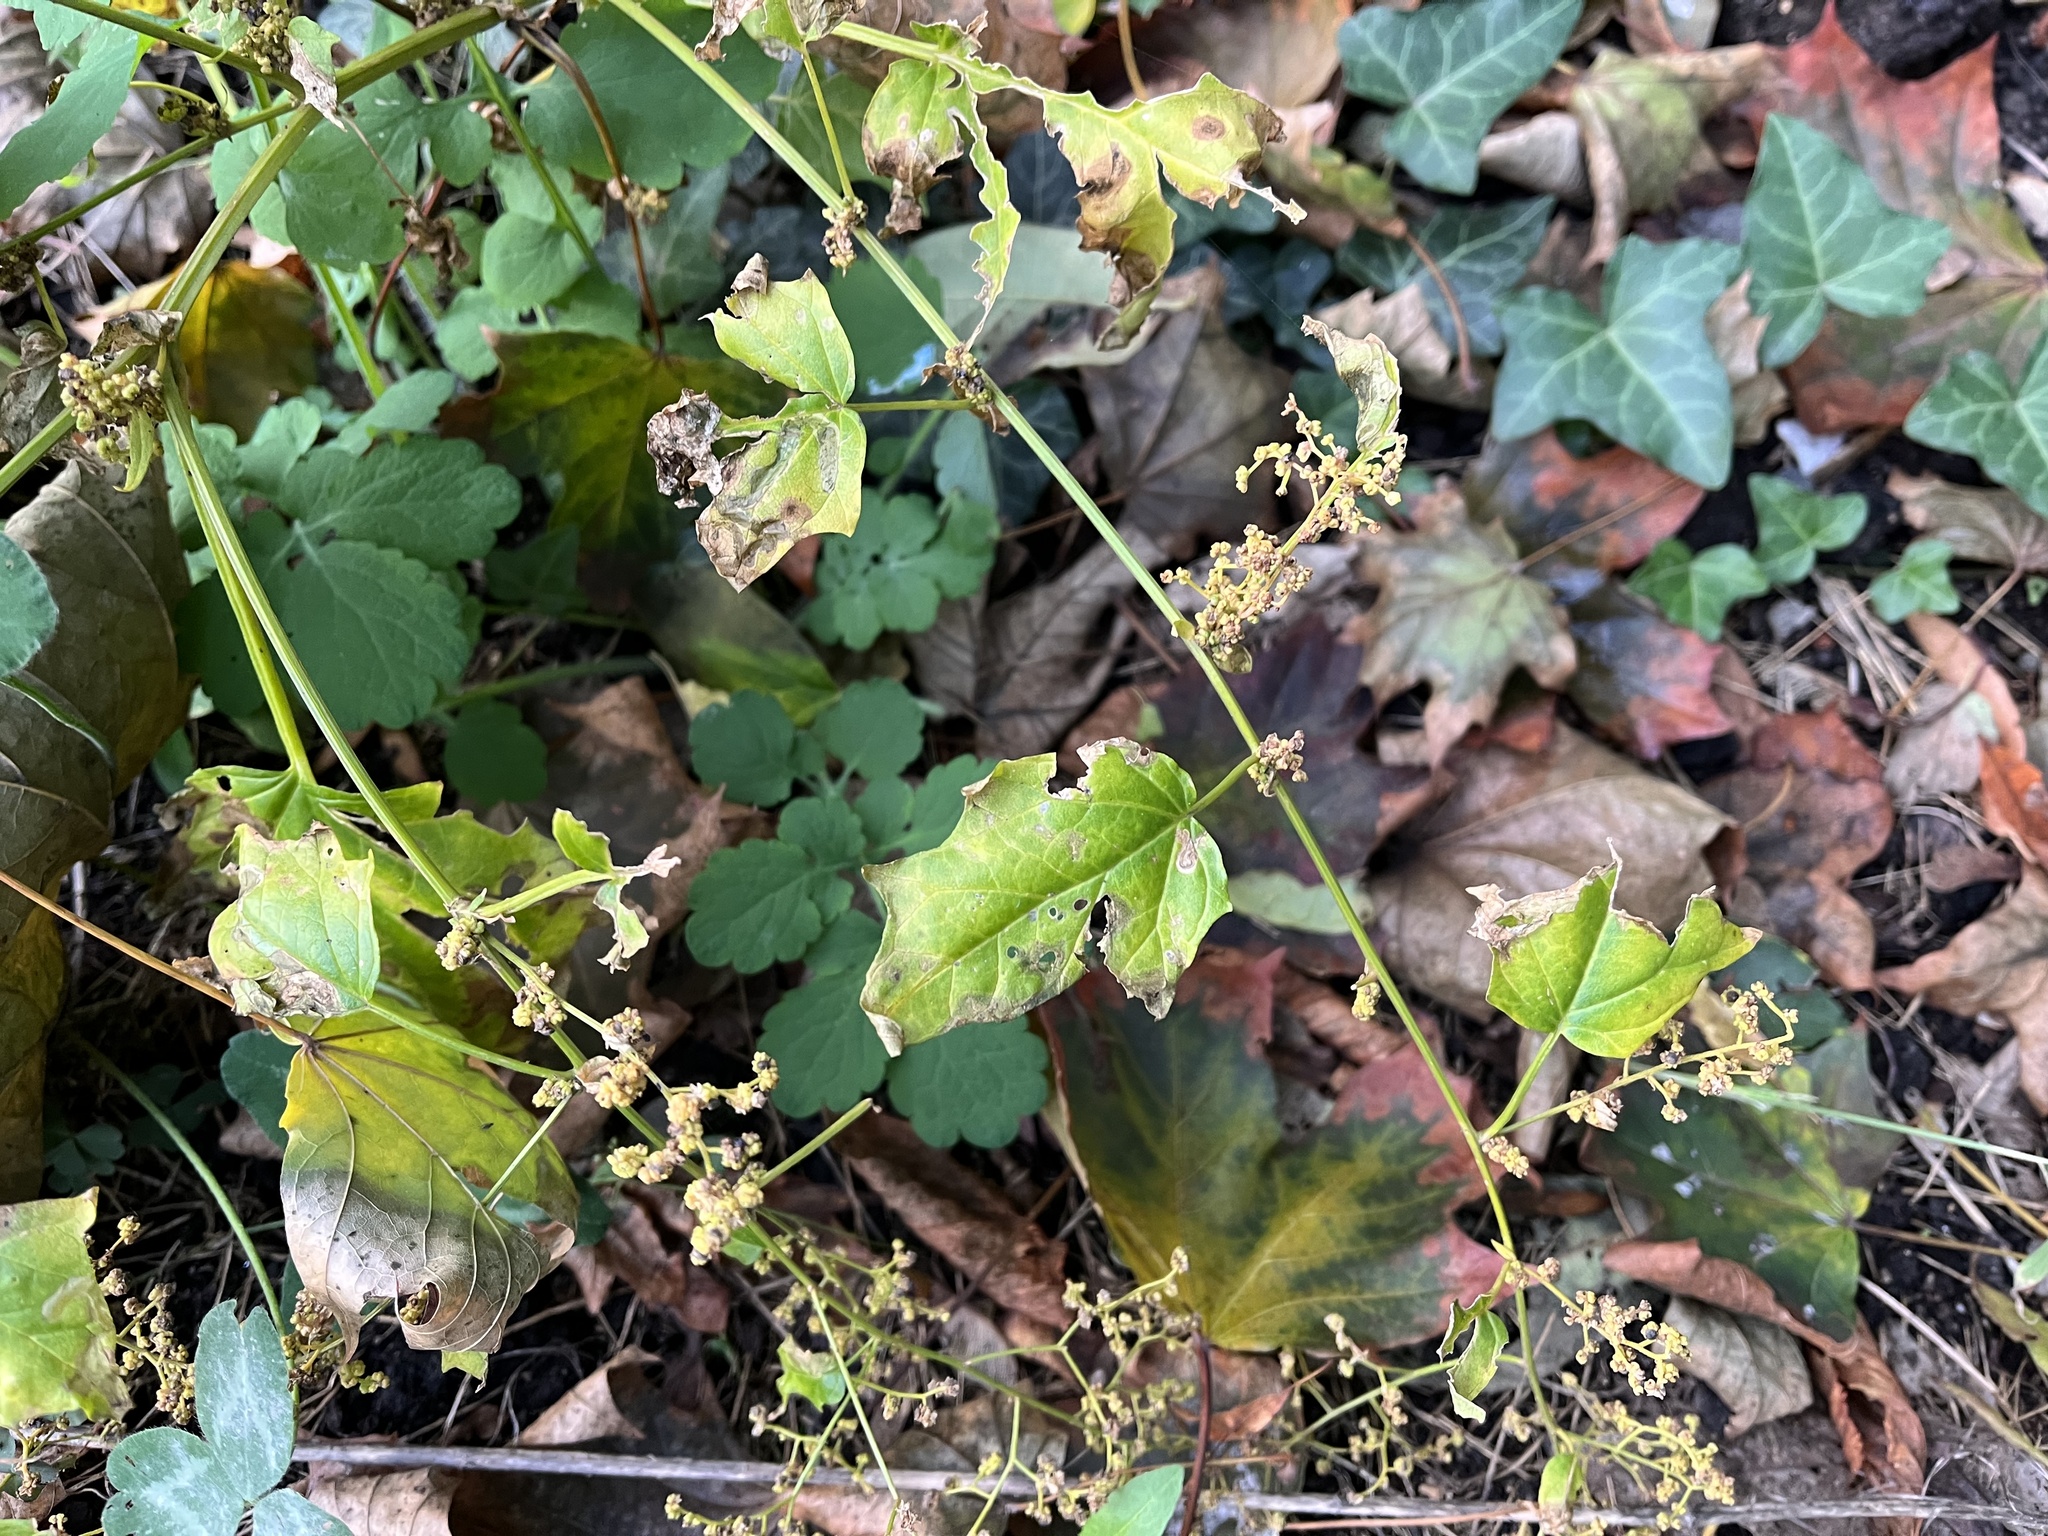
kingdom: Plantae
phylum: Tracheophyta
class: Magnoliopsida
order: Caryophyllales
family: Amaranthaceae
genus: Chenopodiastrum
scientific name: Chenopodiastrum hybridum
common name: Mapleleaf goosefoot
